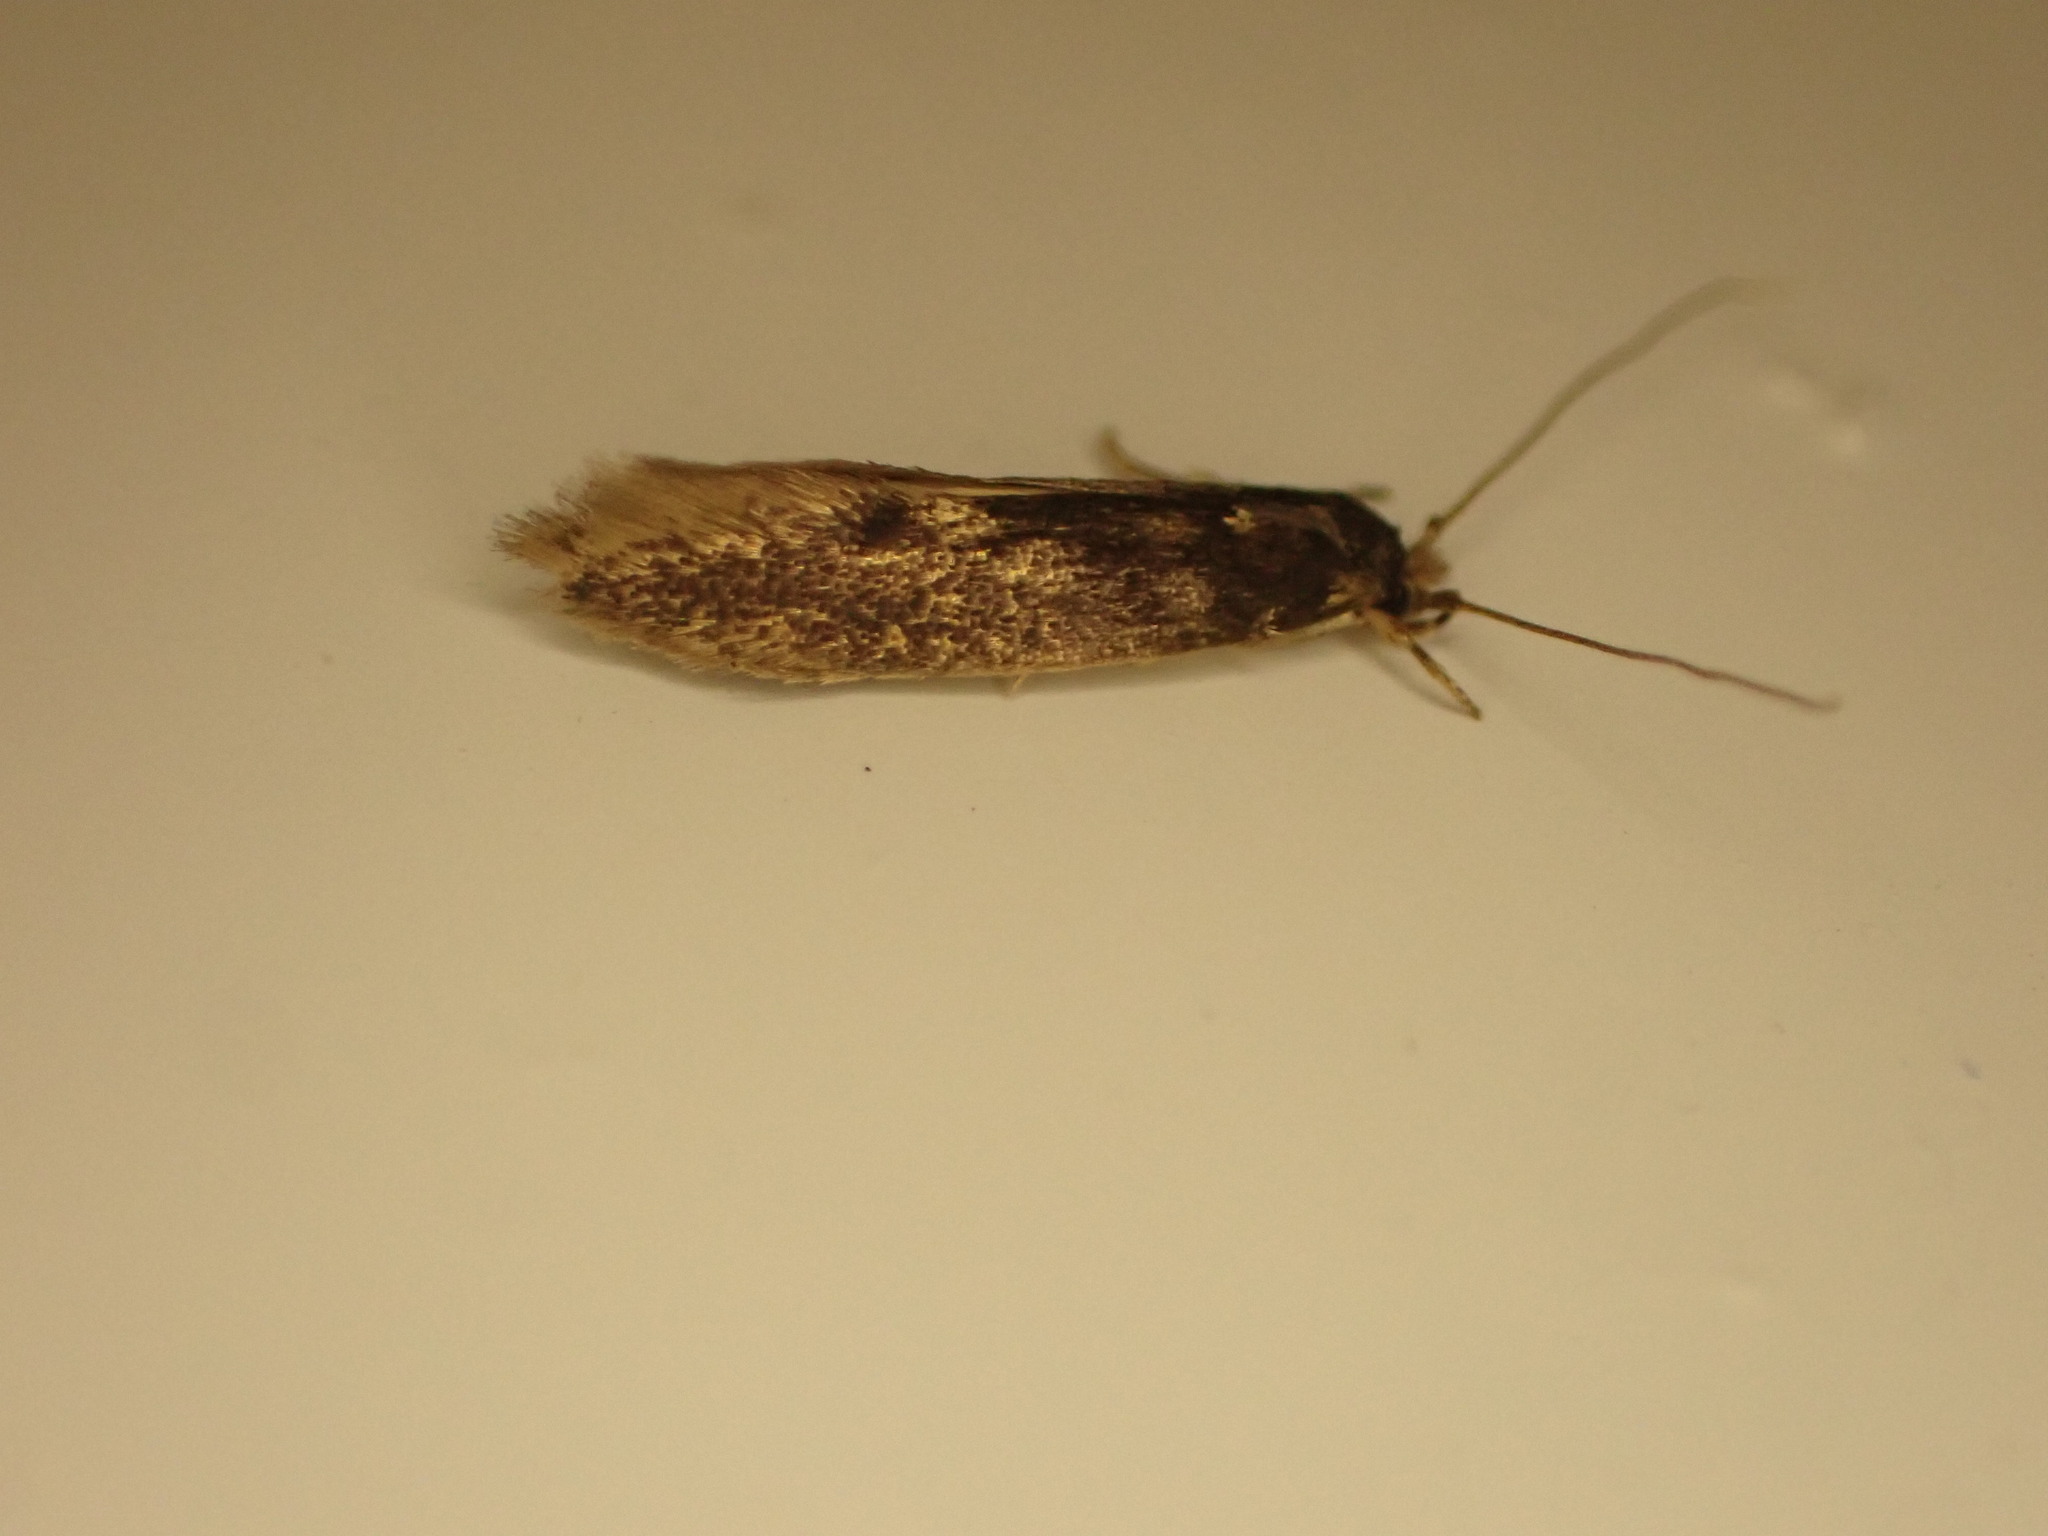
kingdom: Animalia
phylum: Arthropoda
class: Insecta
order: Lepidoptera
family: Tineidae
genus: Opogona
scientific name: Opogona omoscopa
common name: Moth
